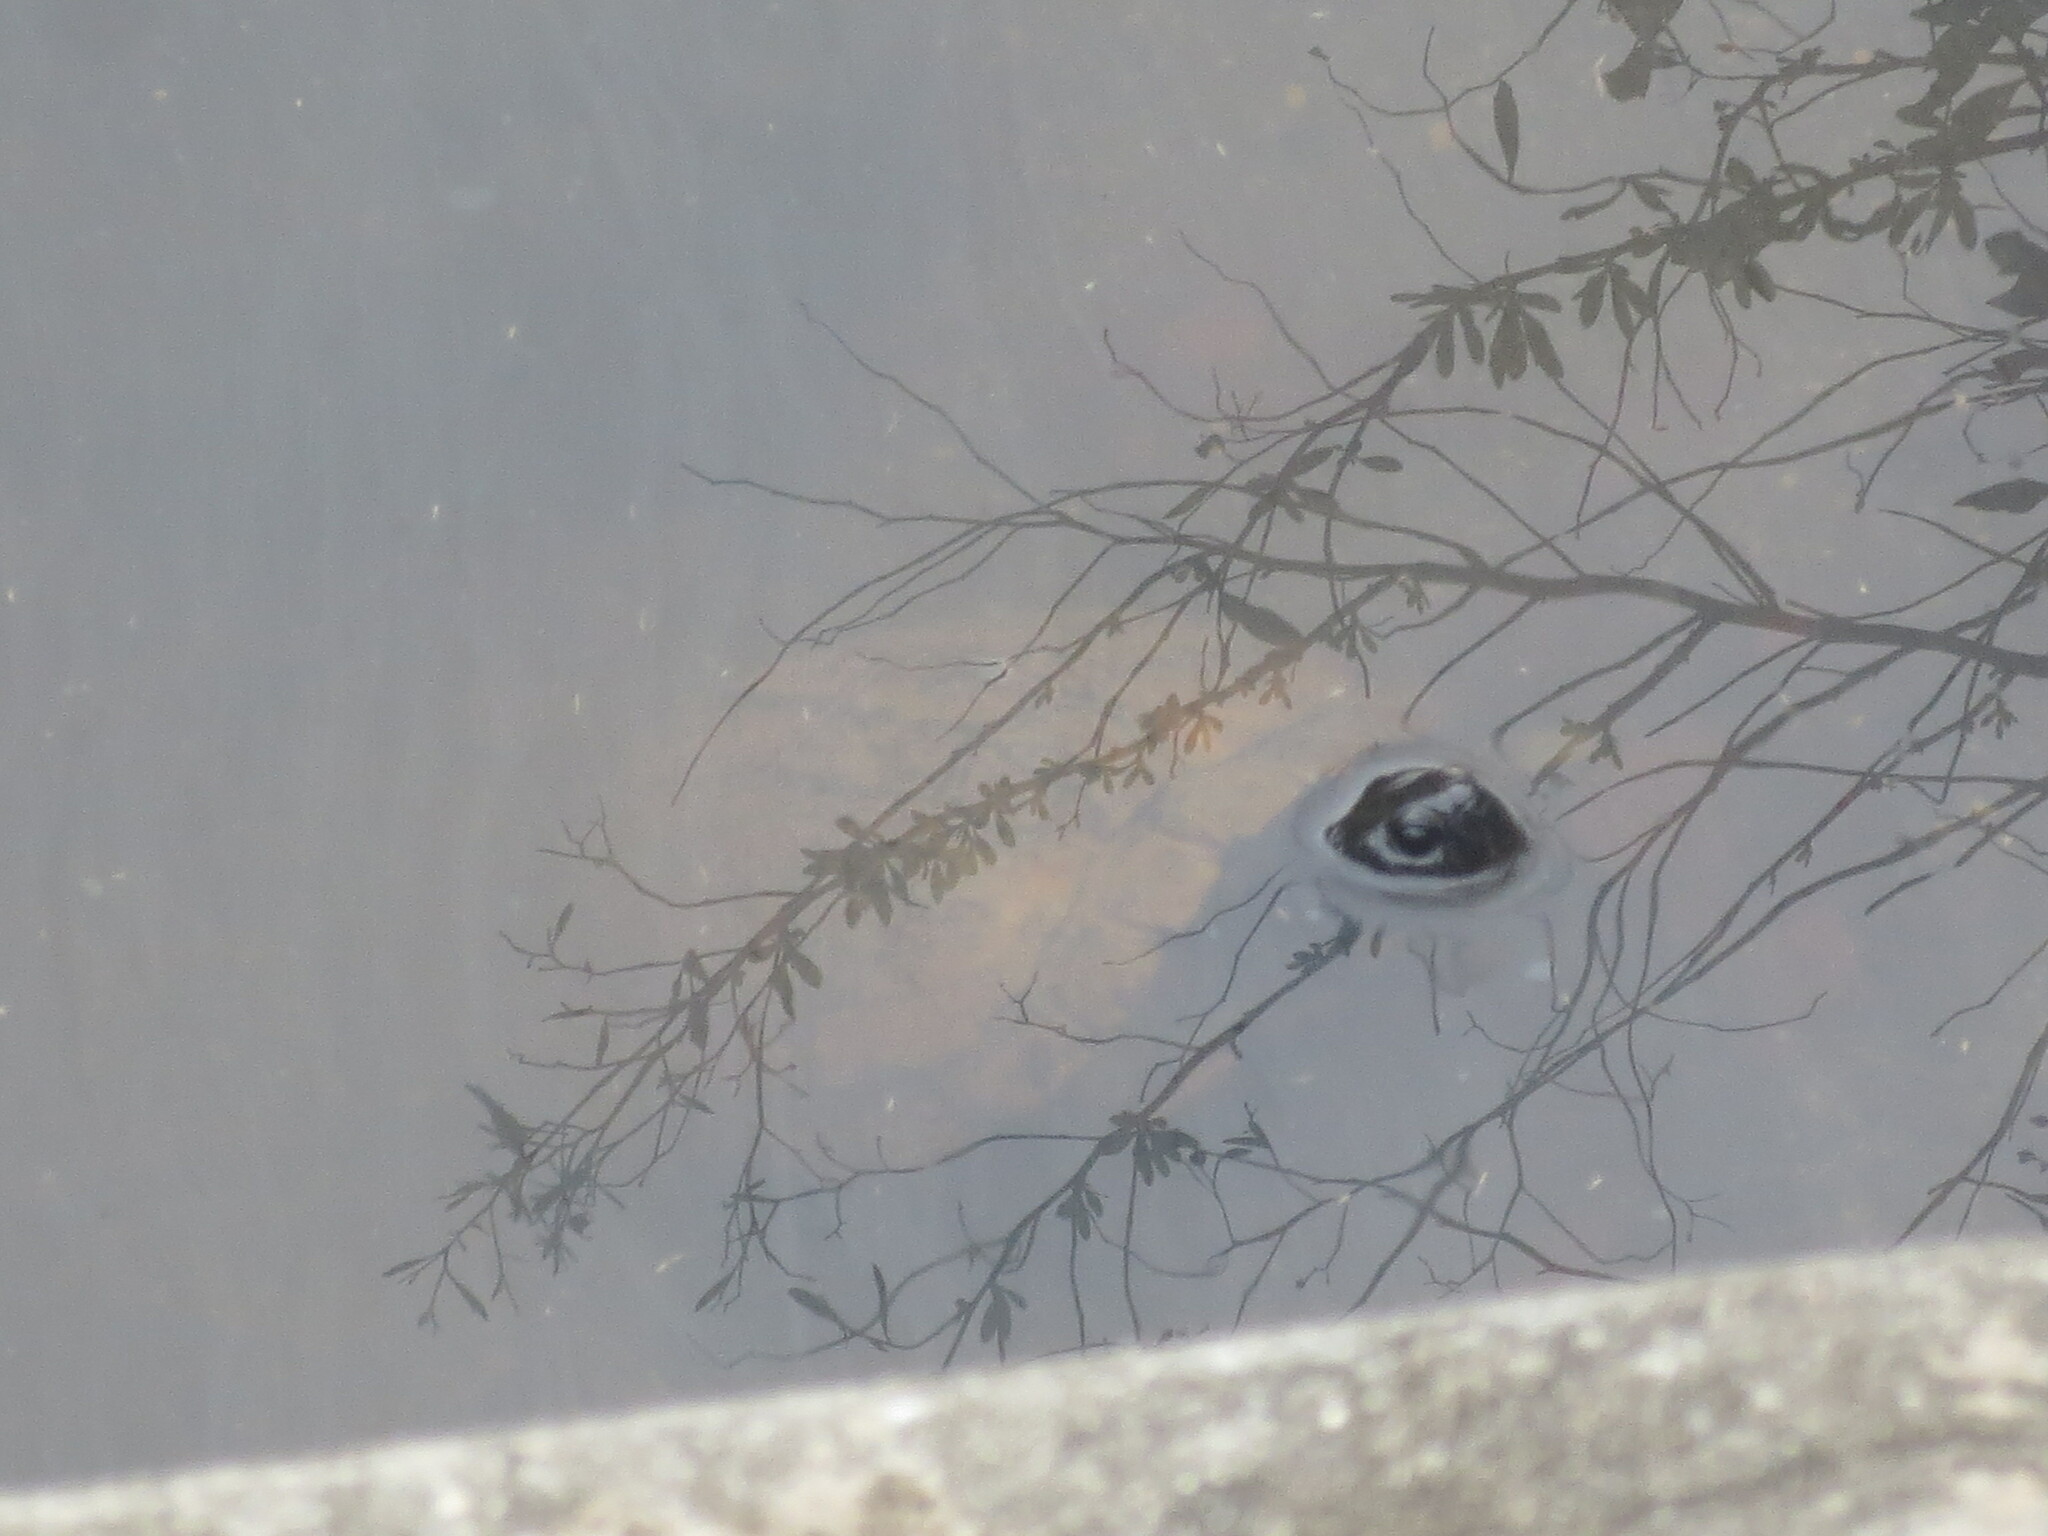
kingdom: Animalia
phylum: Chordata
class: Testudines
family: Emydidae
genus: Trachemys
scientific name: Trachemys scripta
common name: Slider
